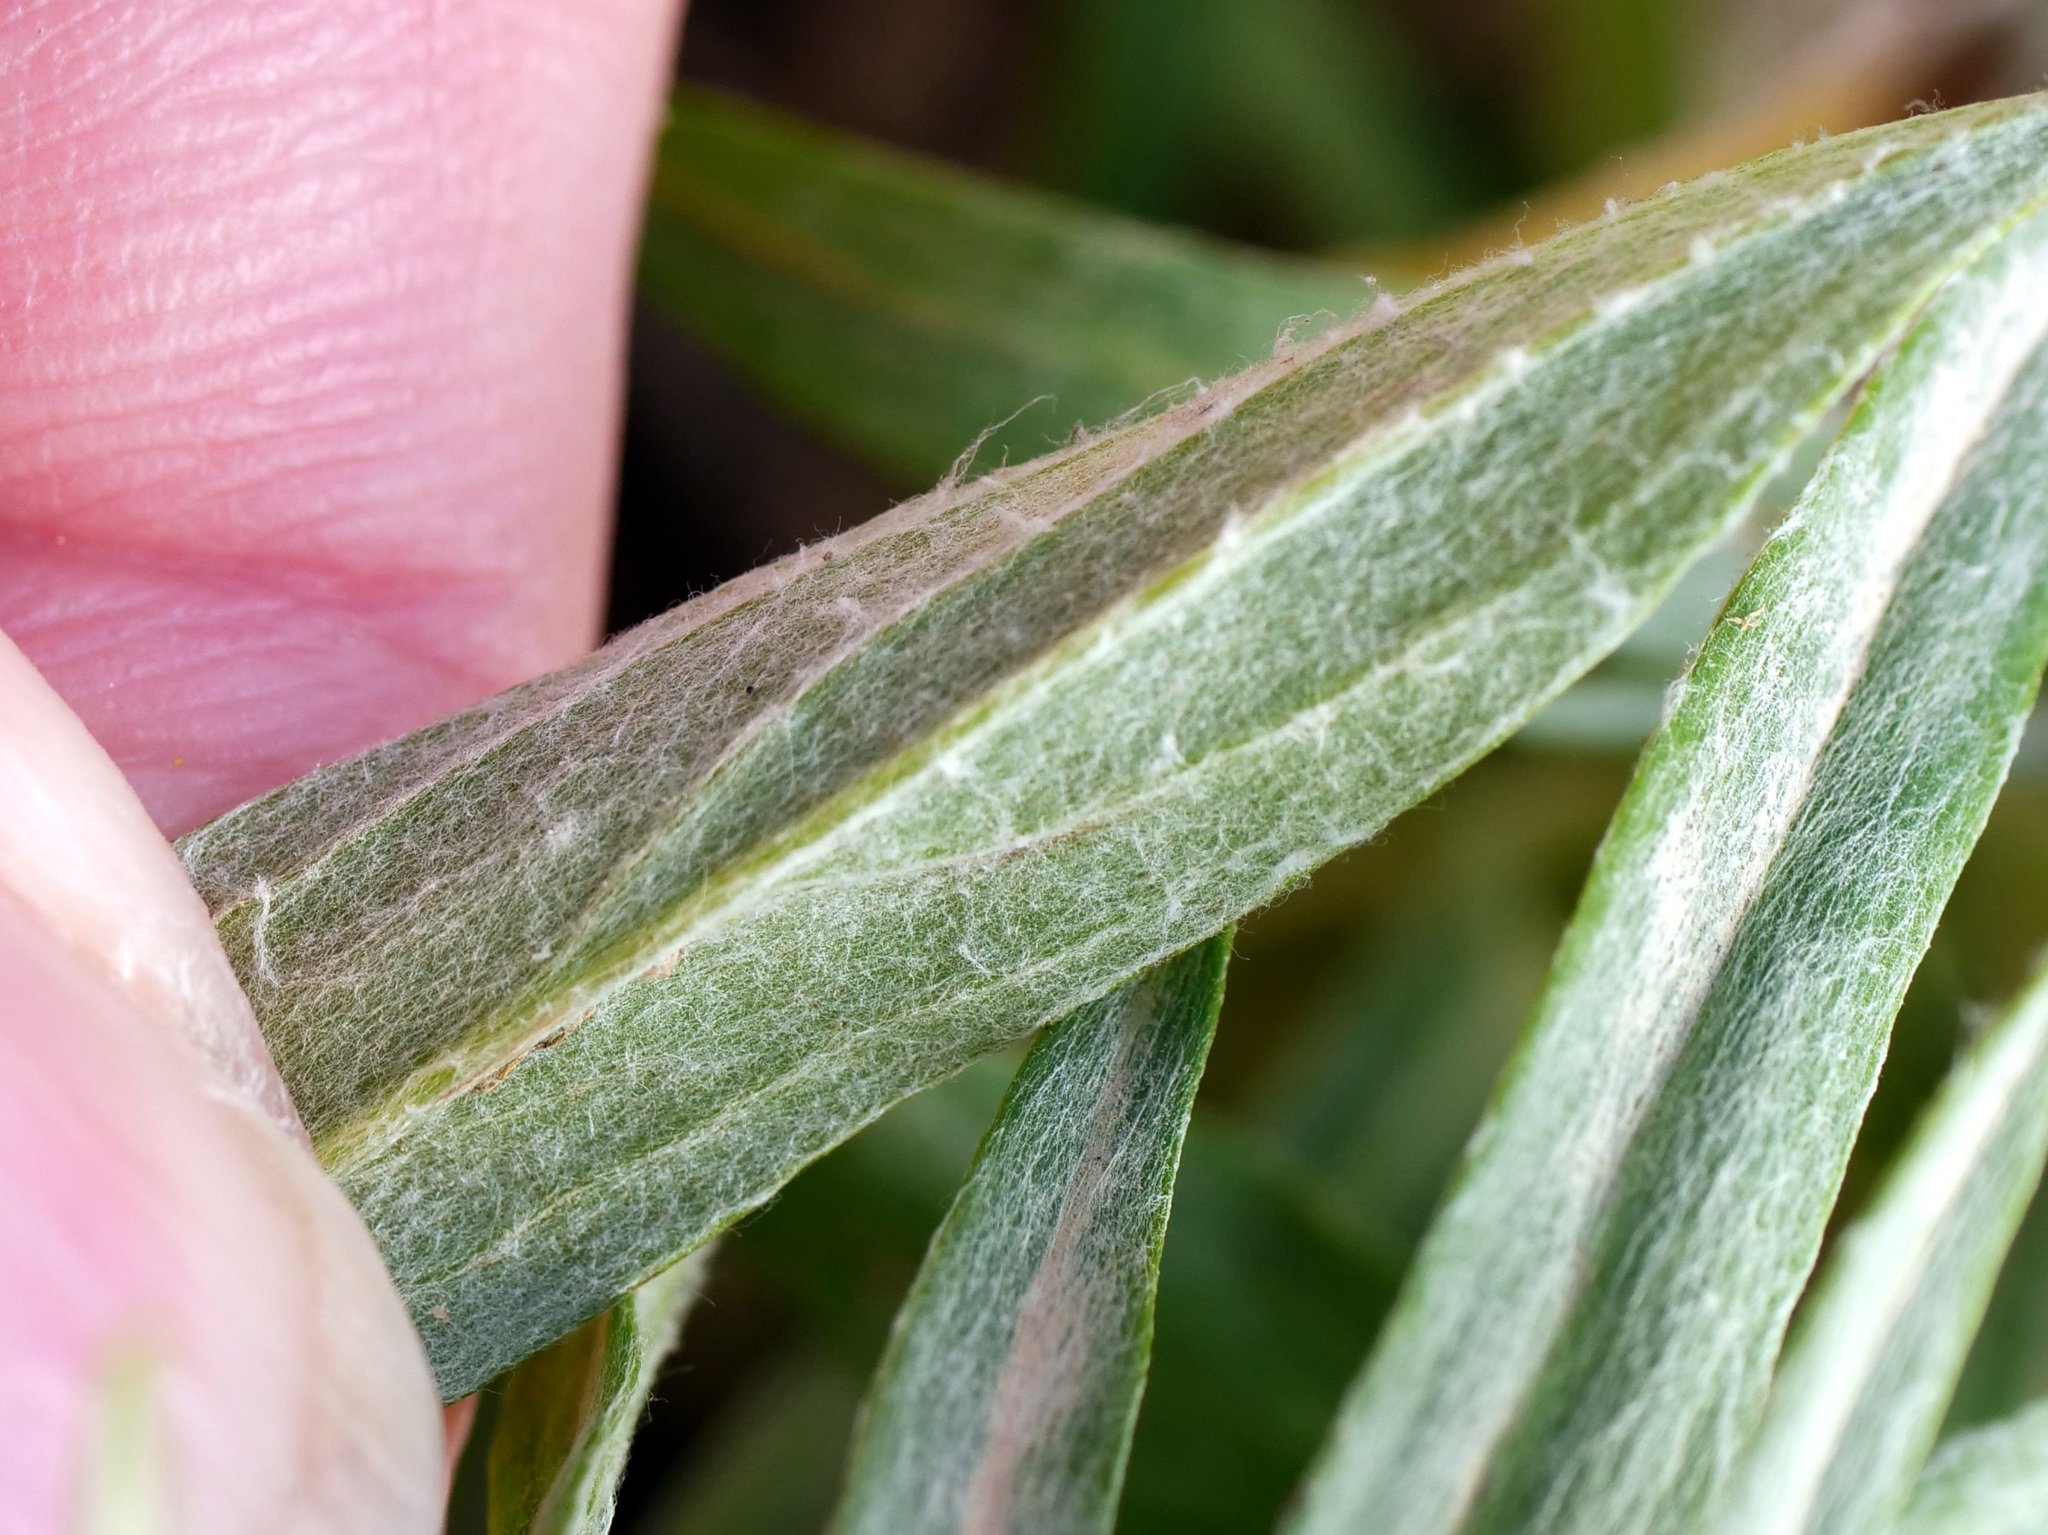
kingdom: Plantae
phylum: Tracheophyta
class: Magnoliopsida
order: Asterales
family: Asteraceae
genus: Omalotheca
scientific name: Omalotheca norvegica
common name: Norwegian arctic-cudweed
